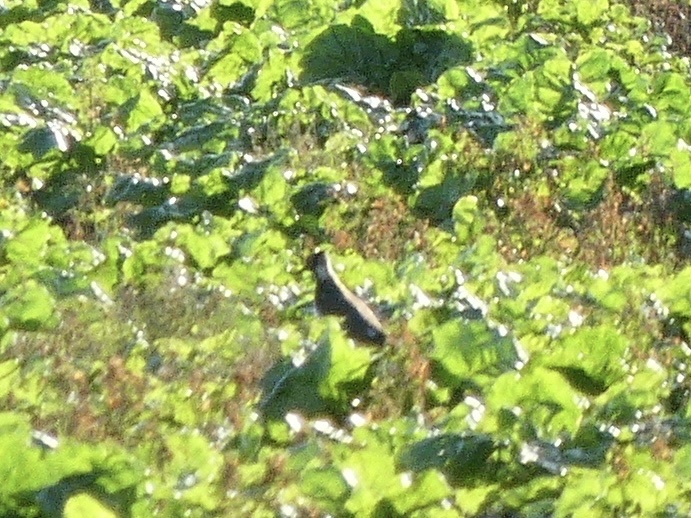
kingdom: Animalia
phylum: Chordata
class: Aves
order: Charadriiformes
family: Charadriidae
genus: Vanellus
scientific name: Vanellus vanellus
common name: Northern lapwing
